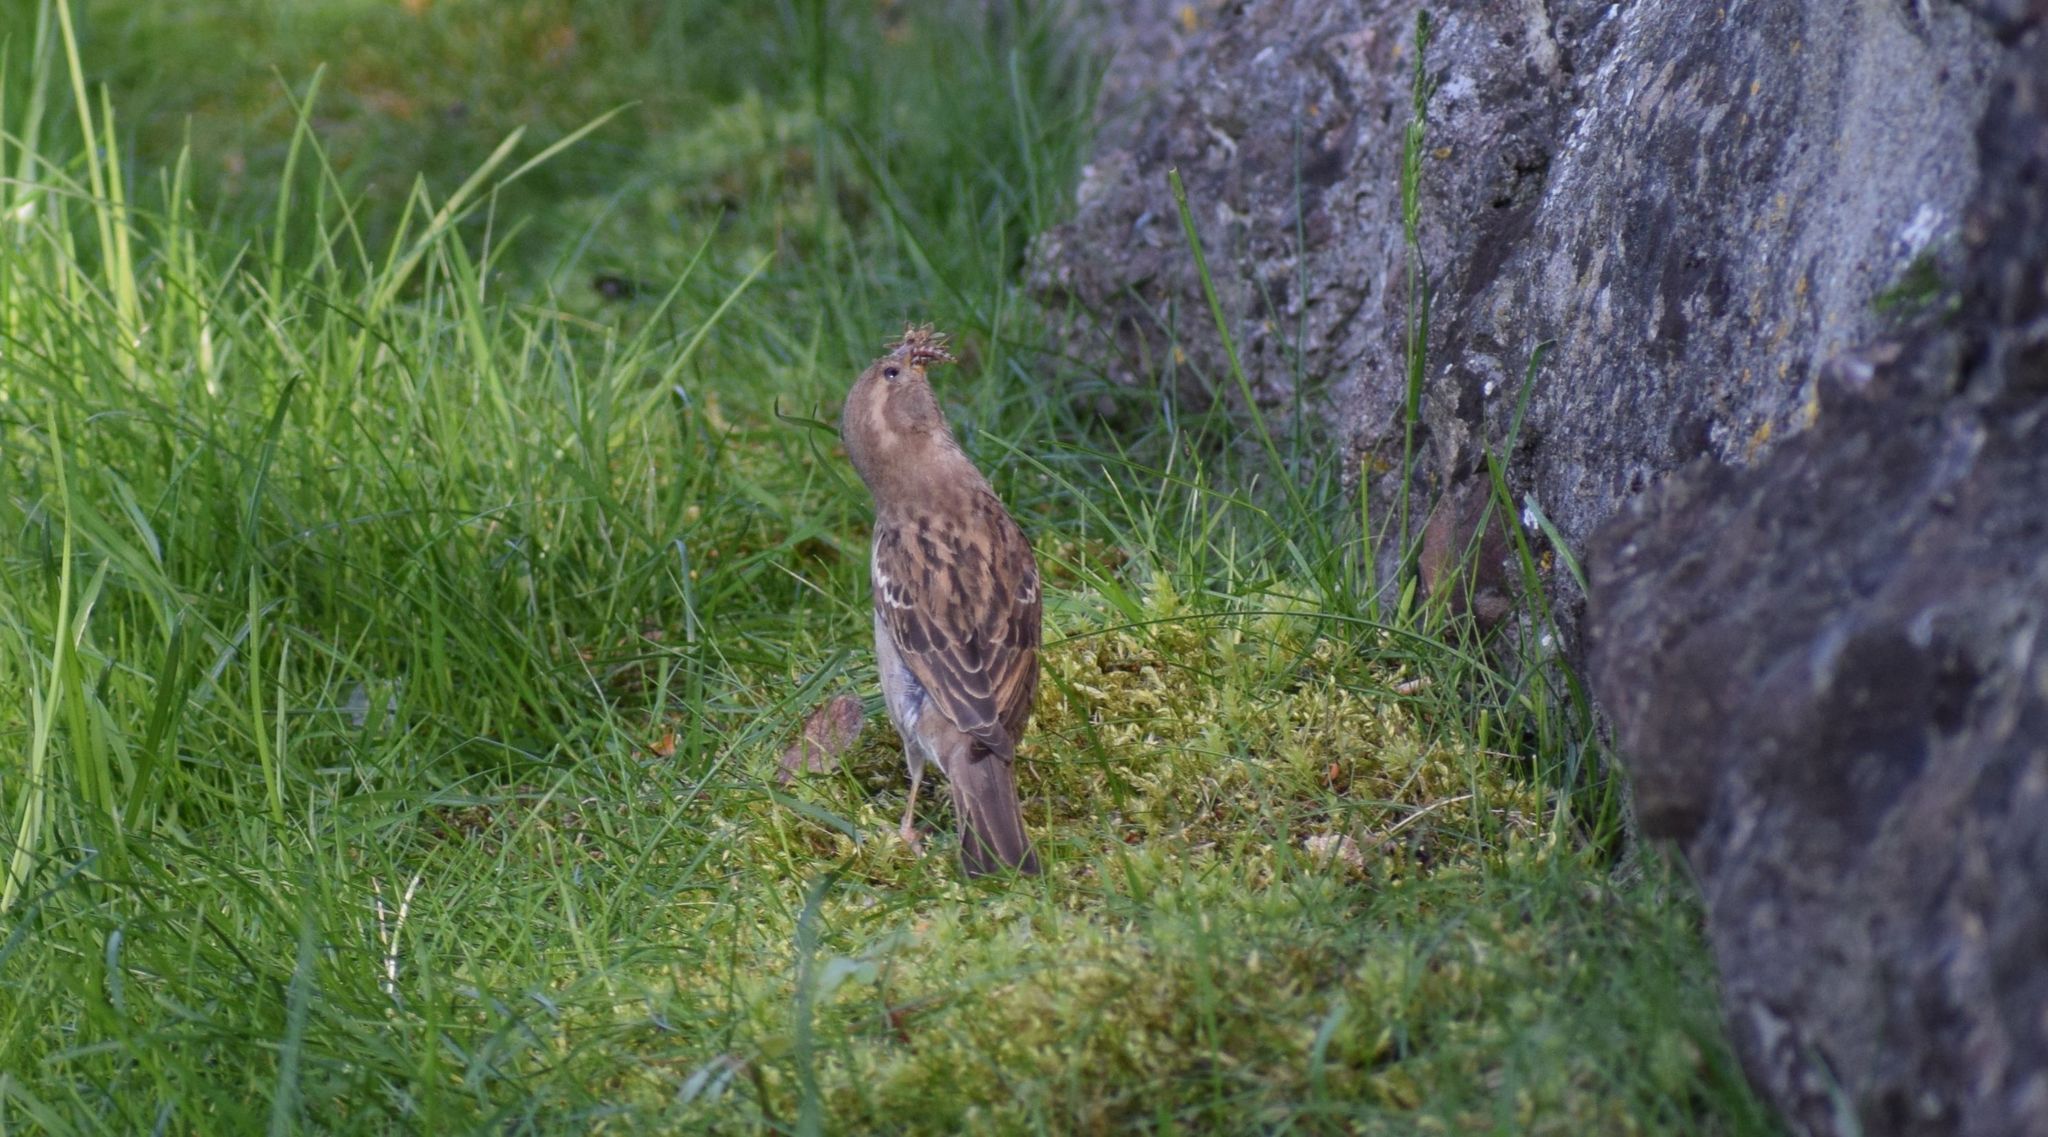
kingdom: Animalia
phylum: Chordata
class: Aves
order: Passeriformes
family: Passeridae
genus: Passer
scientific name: Passer domesticus
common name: House sparrow
